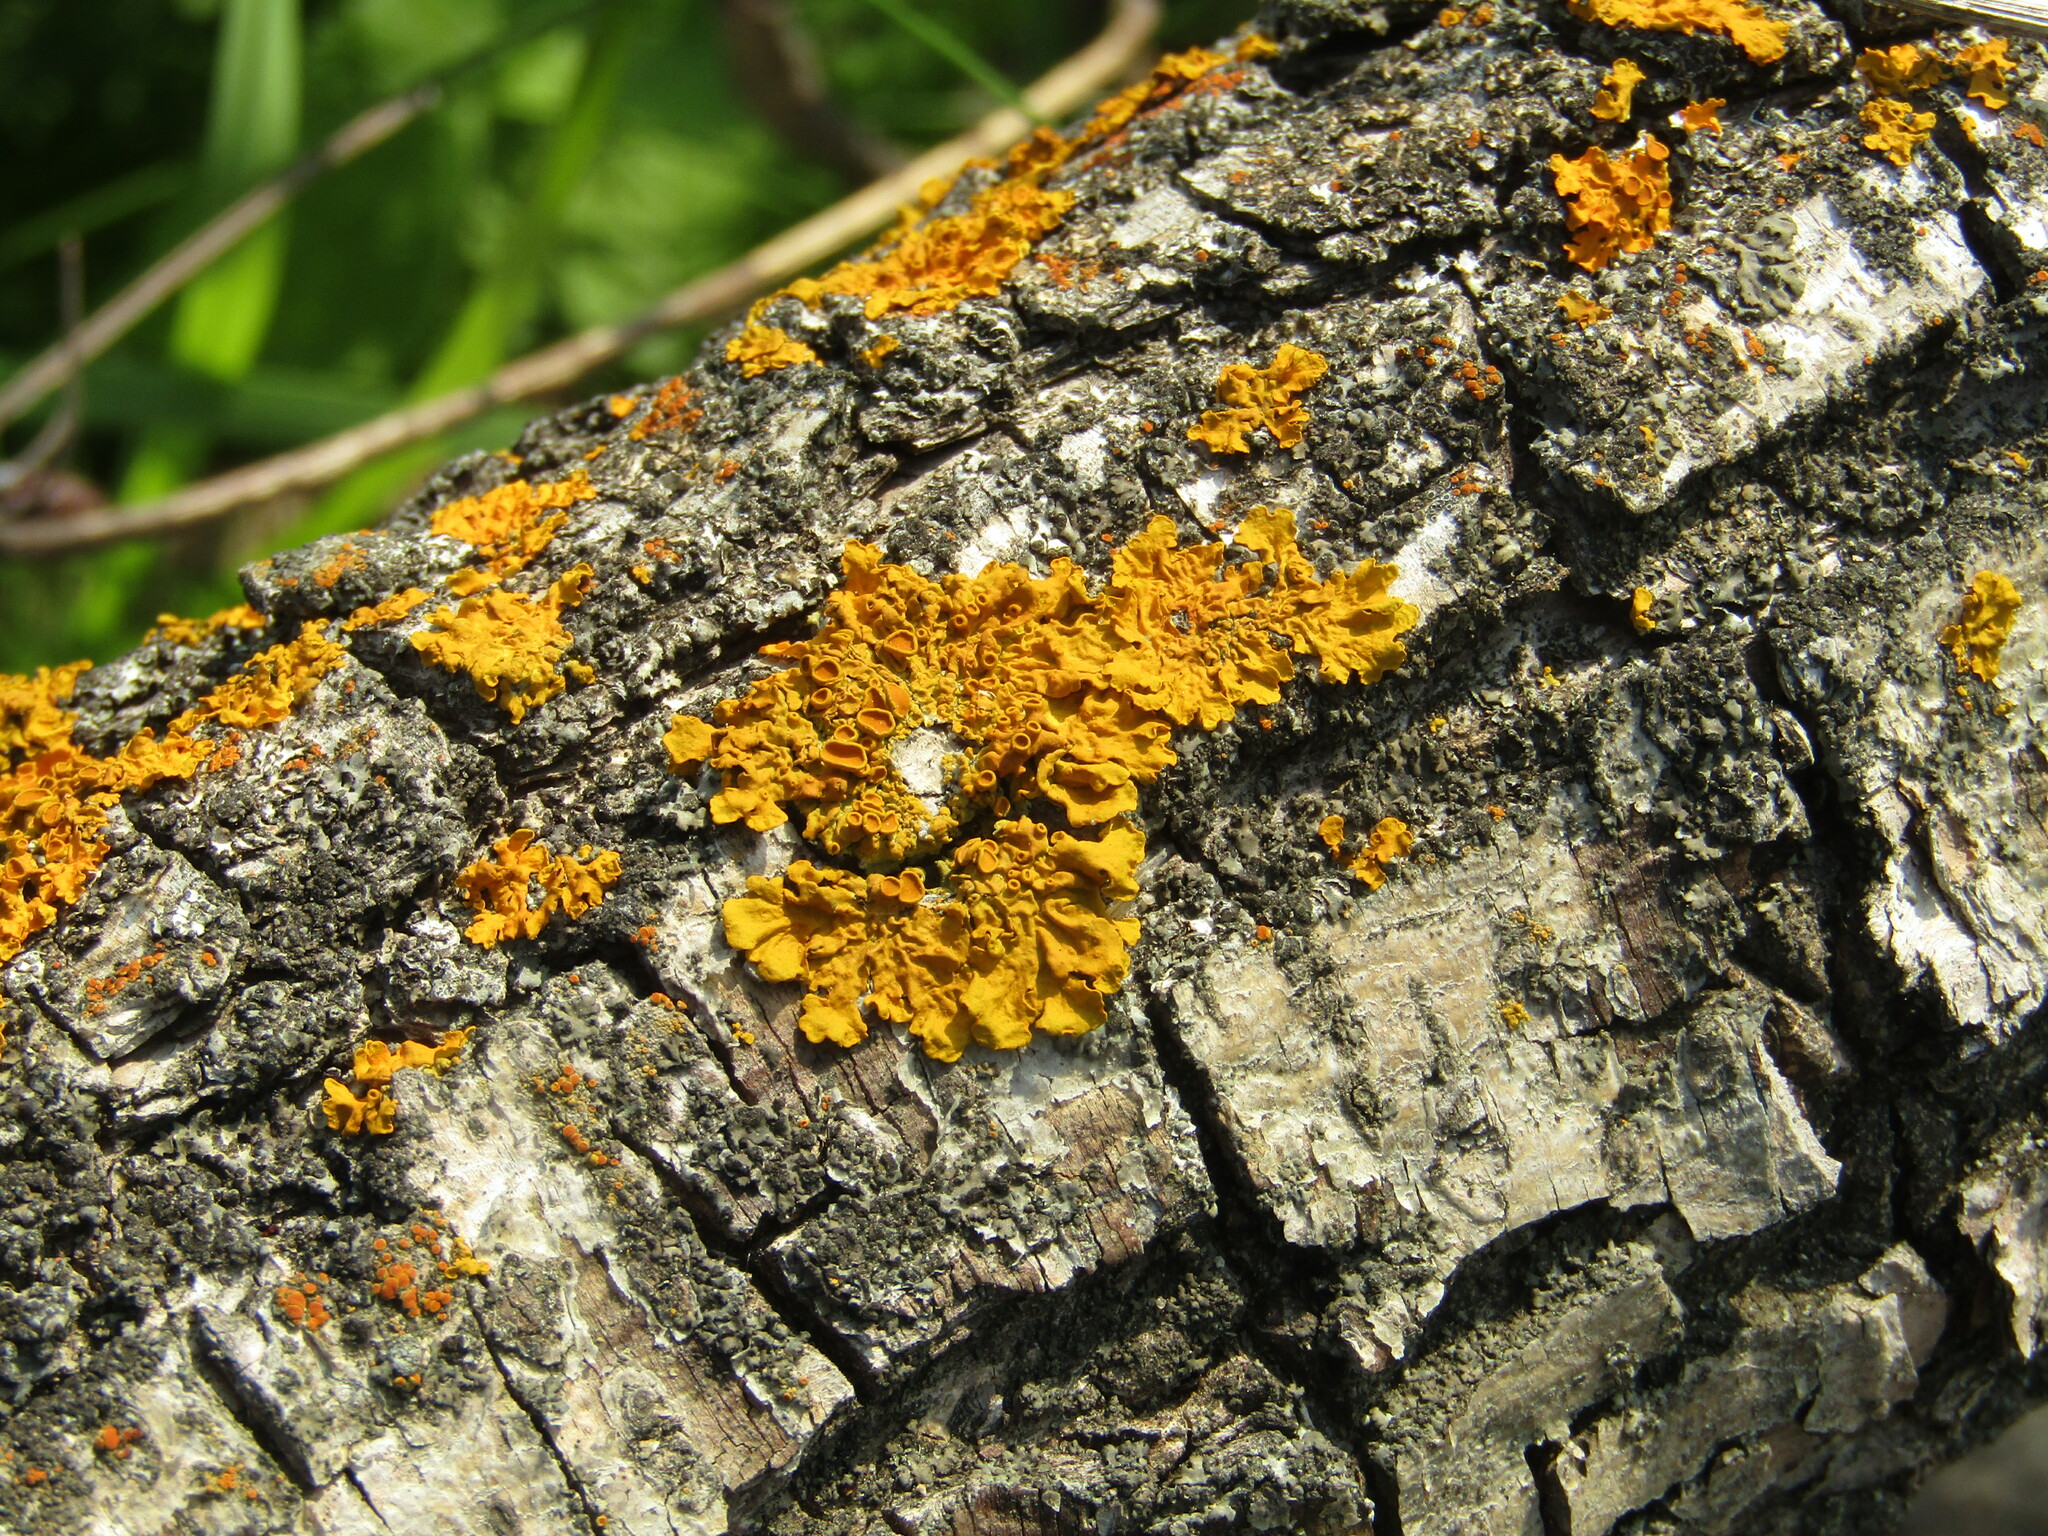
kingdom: Fungi
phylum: Ascomycota
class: Lecanoromycetes
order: Teloschistales
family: Teloschistaceae
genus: Xanthoria
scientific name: Xanthoria parietina
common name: Common orange lichen
